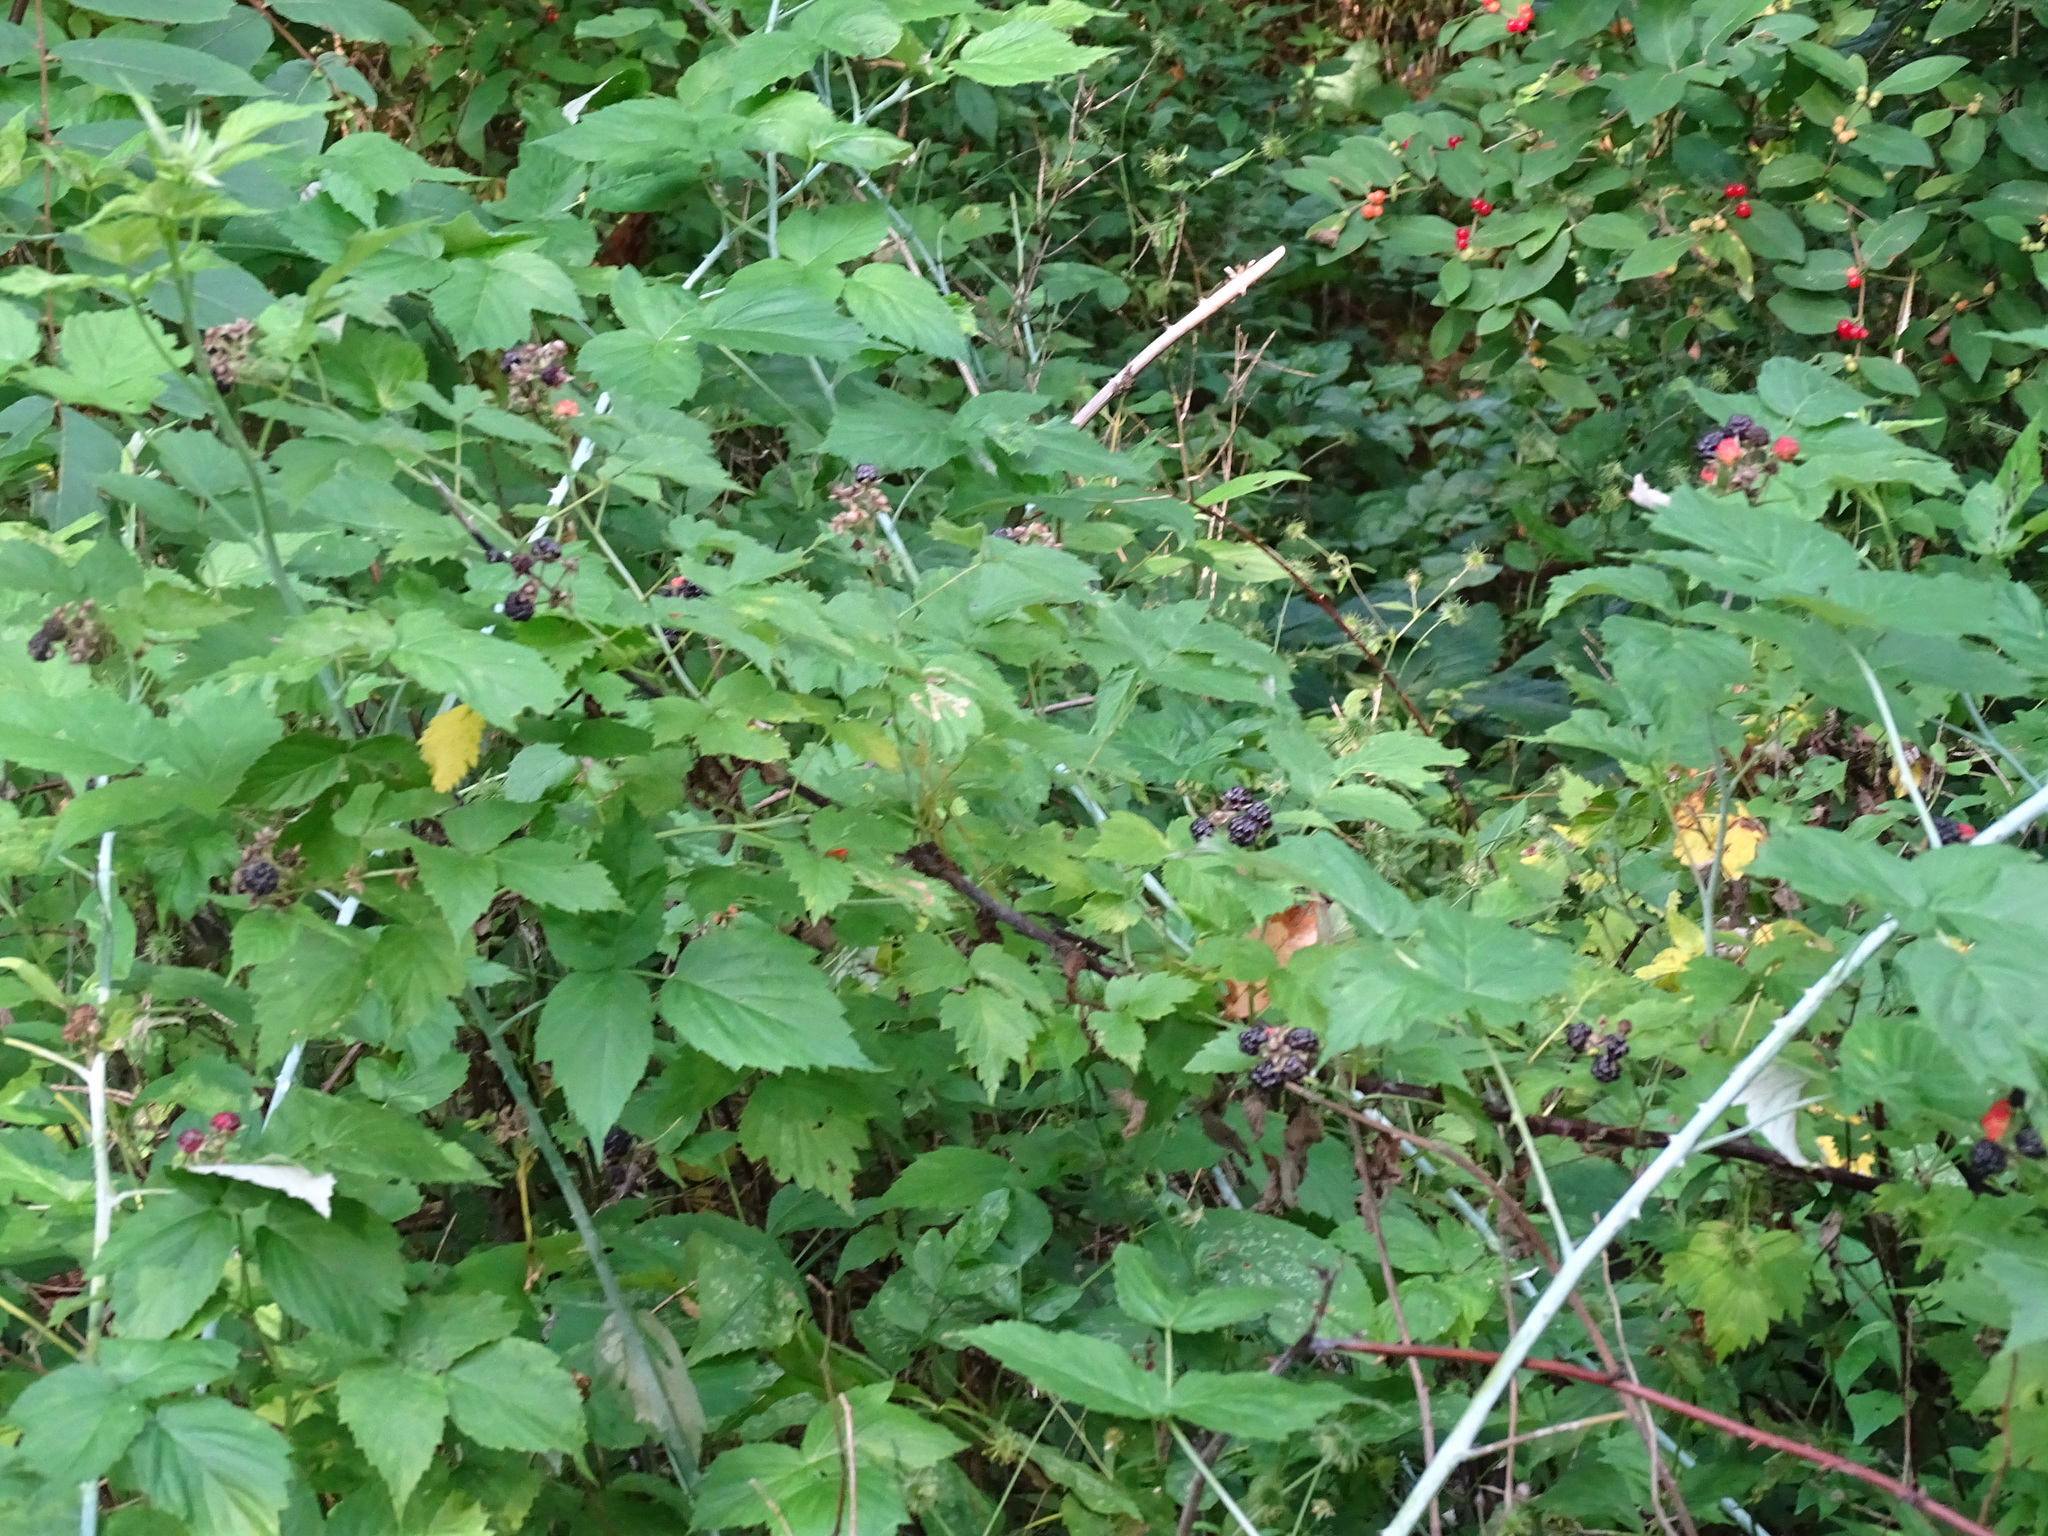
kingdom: Plantae
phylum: Tracheophyta
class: Magnoliopsida
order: Rosales
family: Rosaceae
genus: Rubus
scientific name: Rubus occidentalis
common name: Black raspberry
